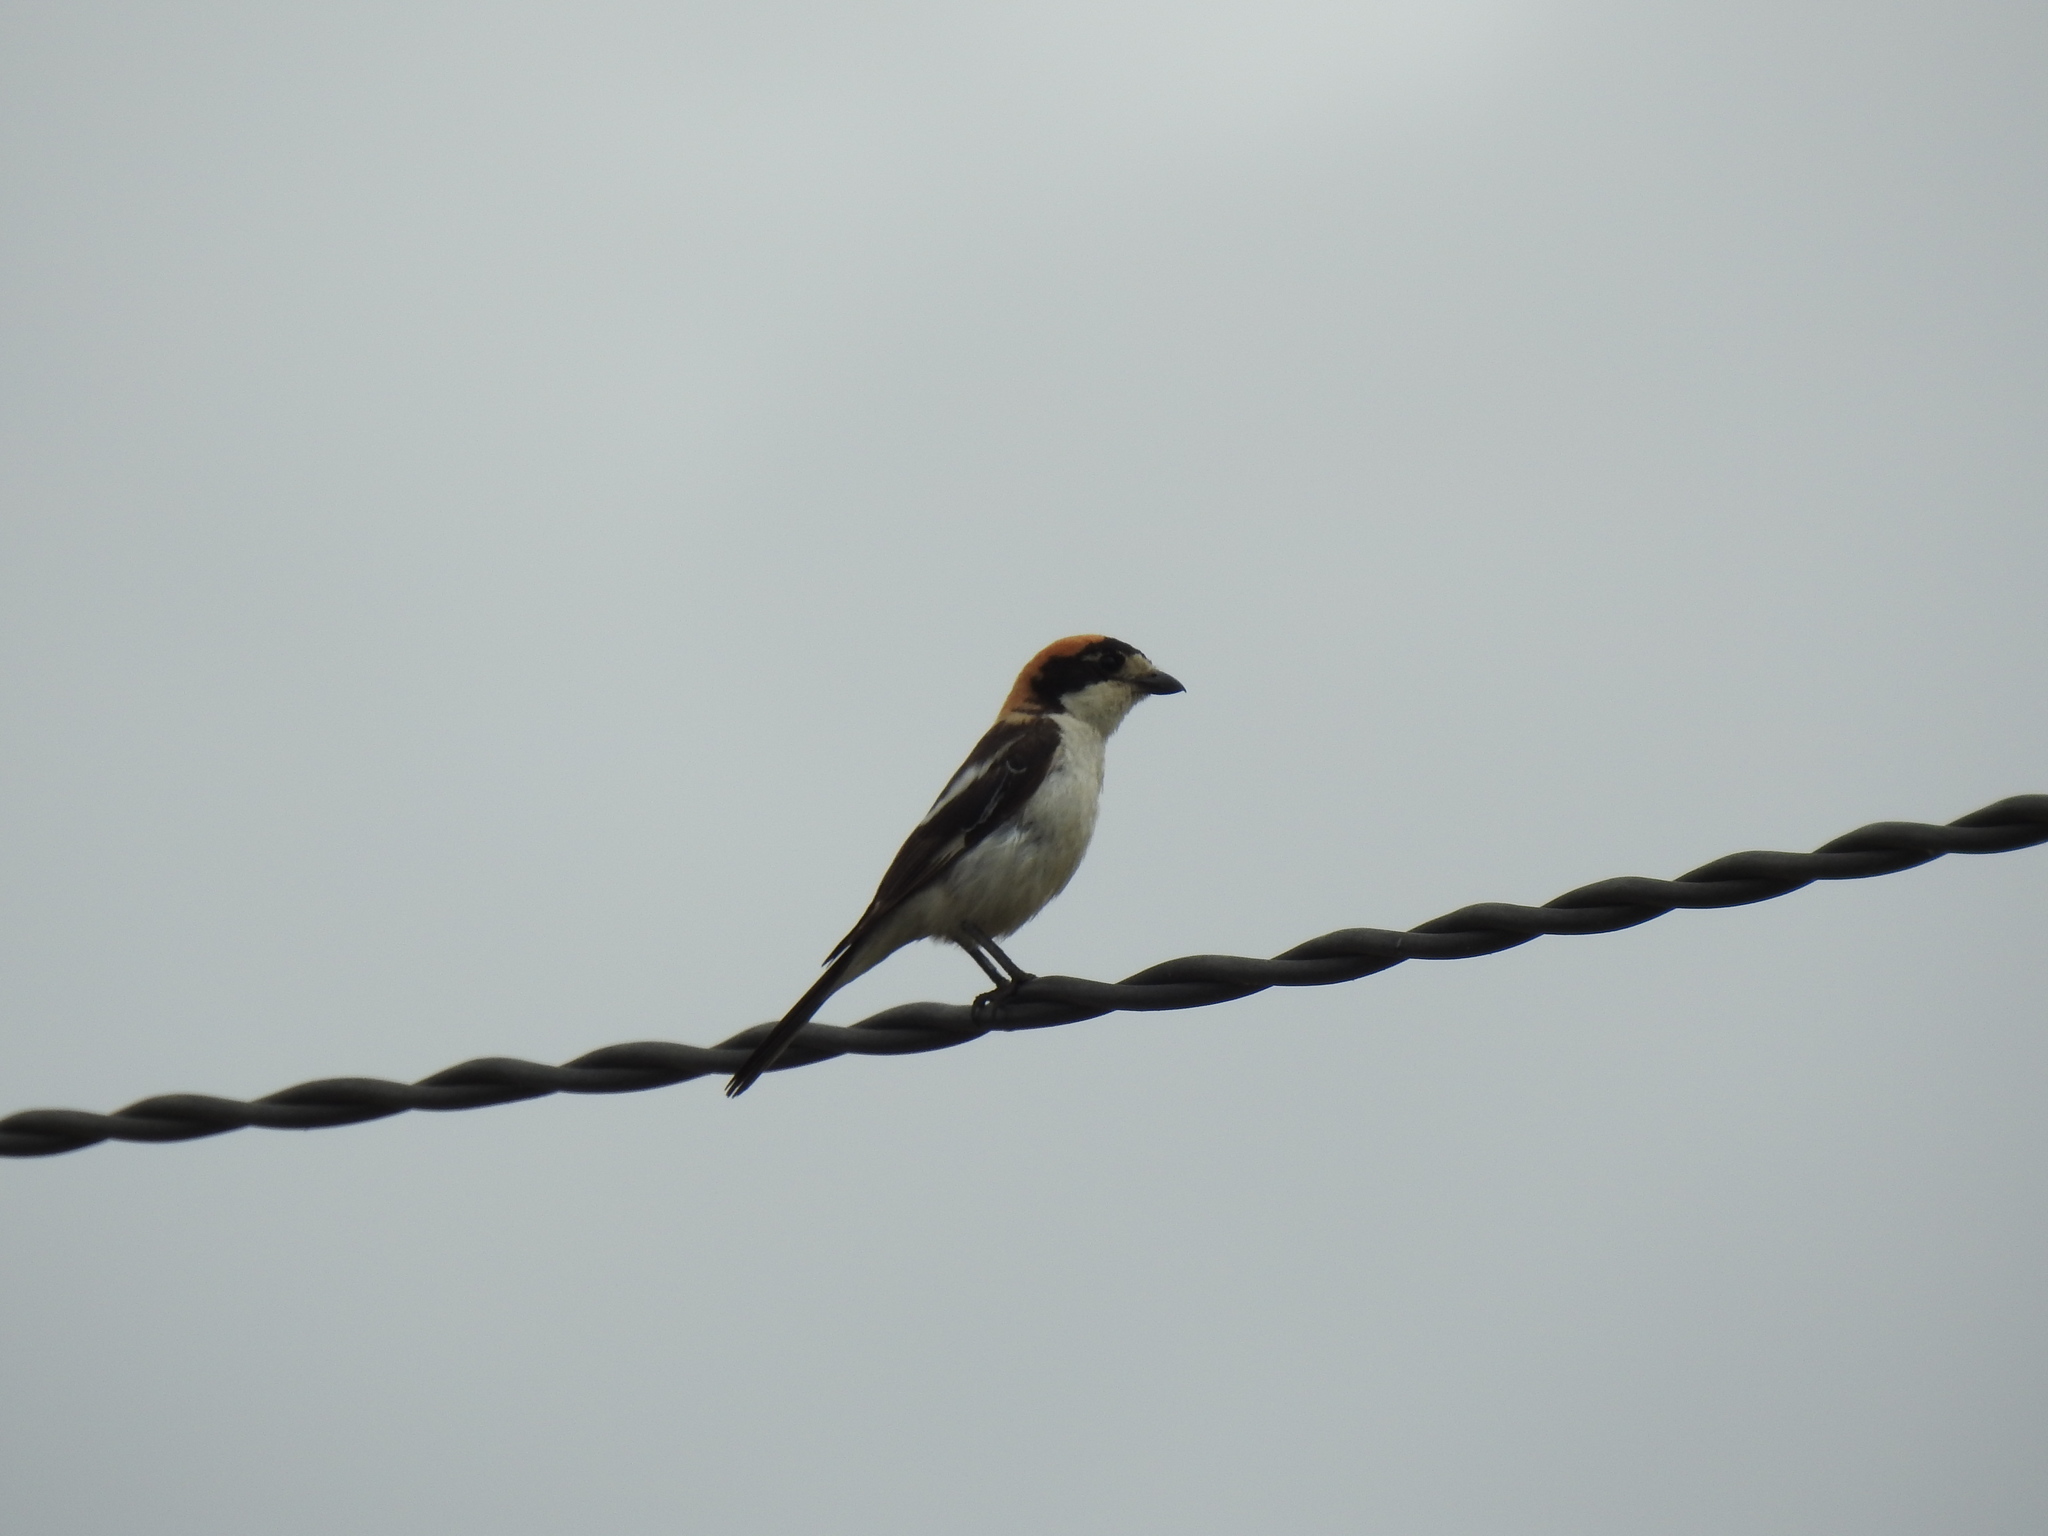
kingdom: Animalia
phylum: Chordata
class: Aves
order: Passeriformes
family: Laniidae
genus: Lanius
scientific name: Lanius senator
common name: Woodchat shrike
